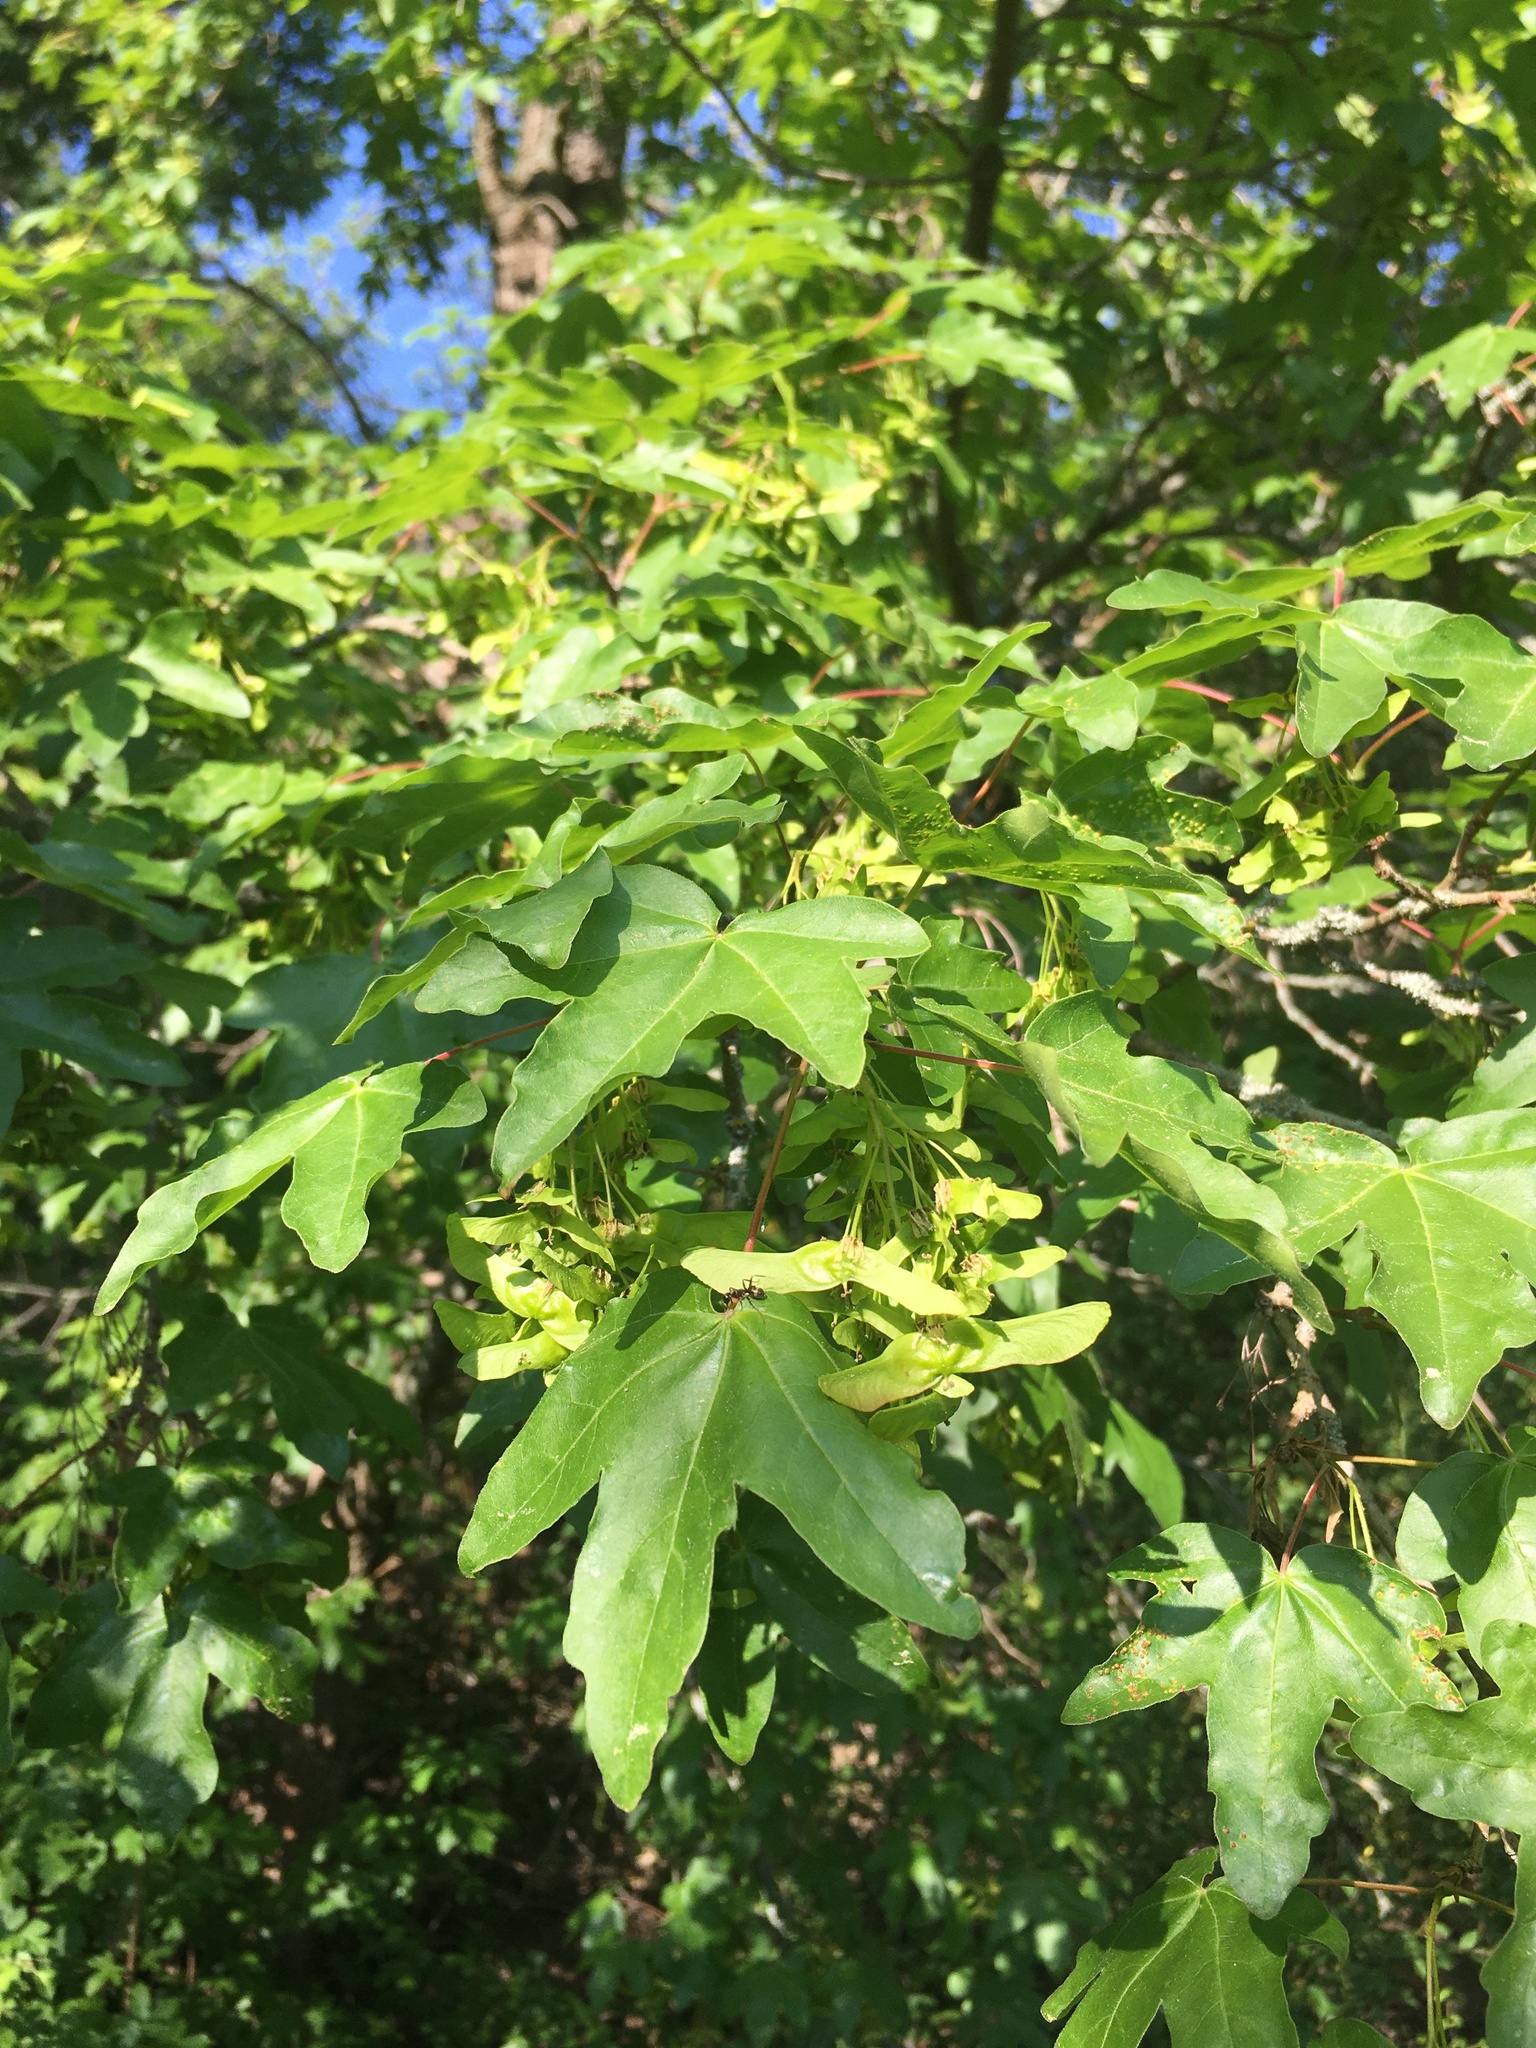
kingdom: Plantae
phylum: Tracheophyta
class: Magnoliopsida
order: Sapindales
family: Sapindaceae
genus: Acer
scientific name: Acer campestre
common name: Field maple
